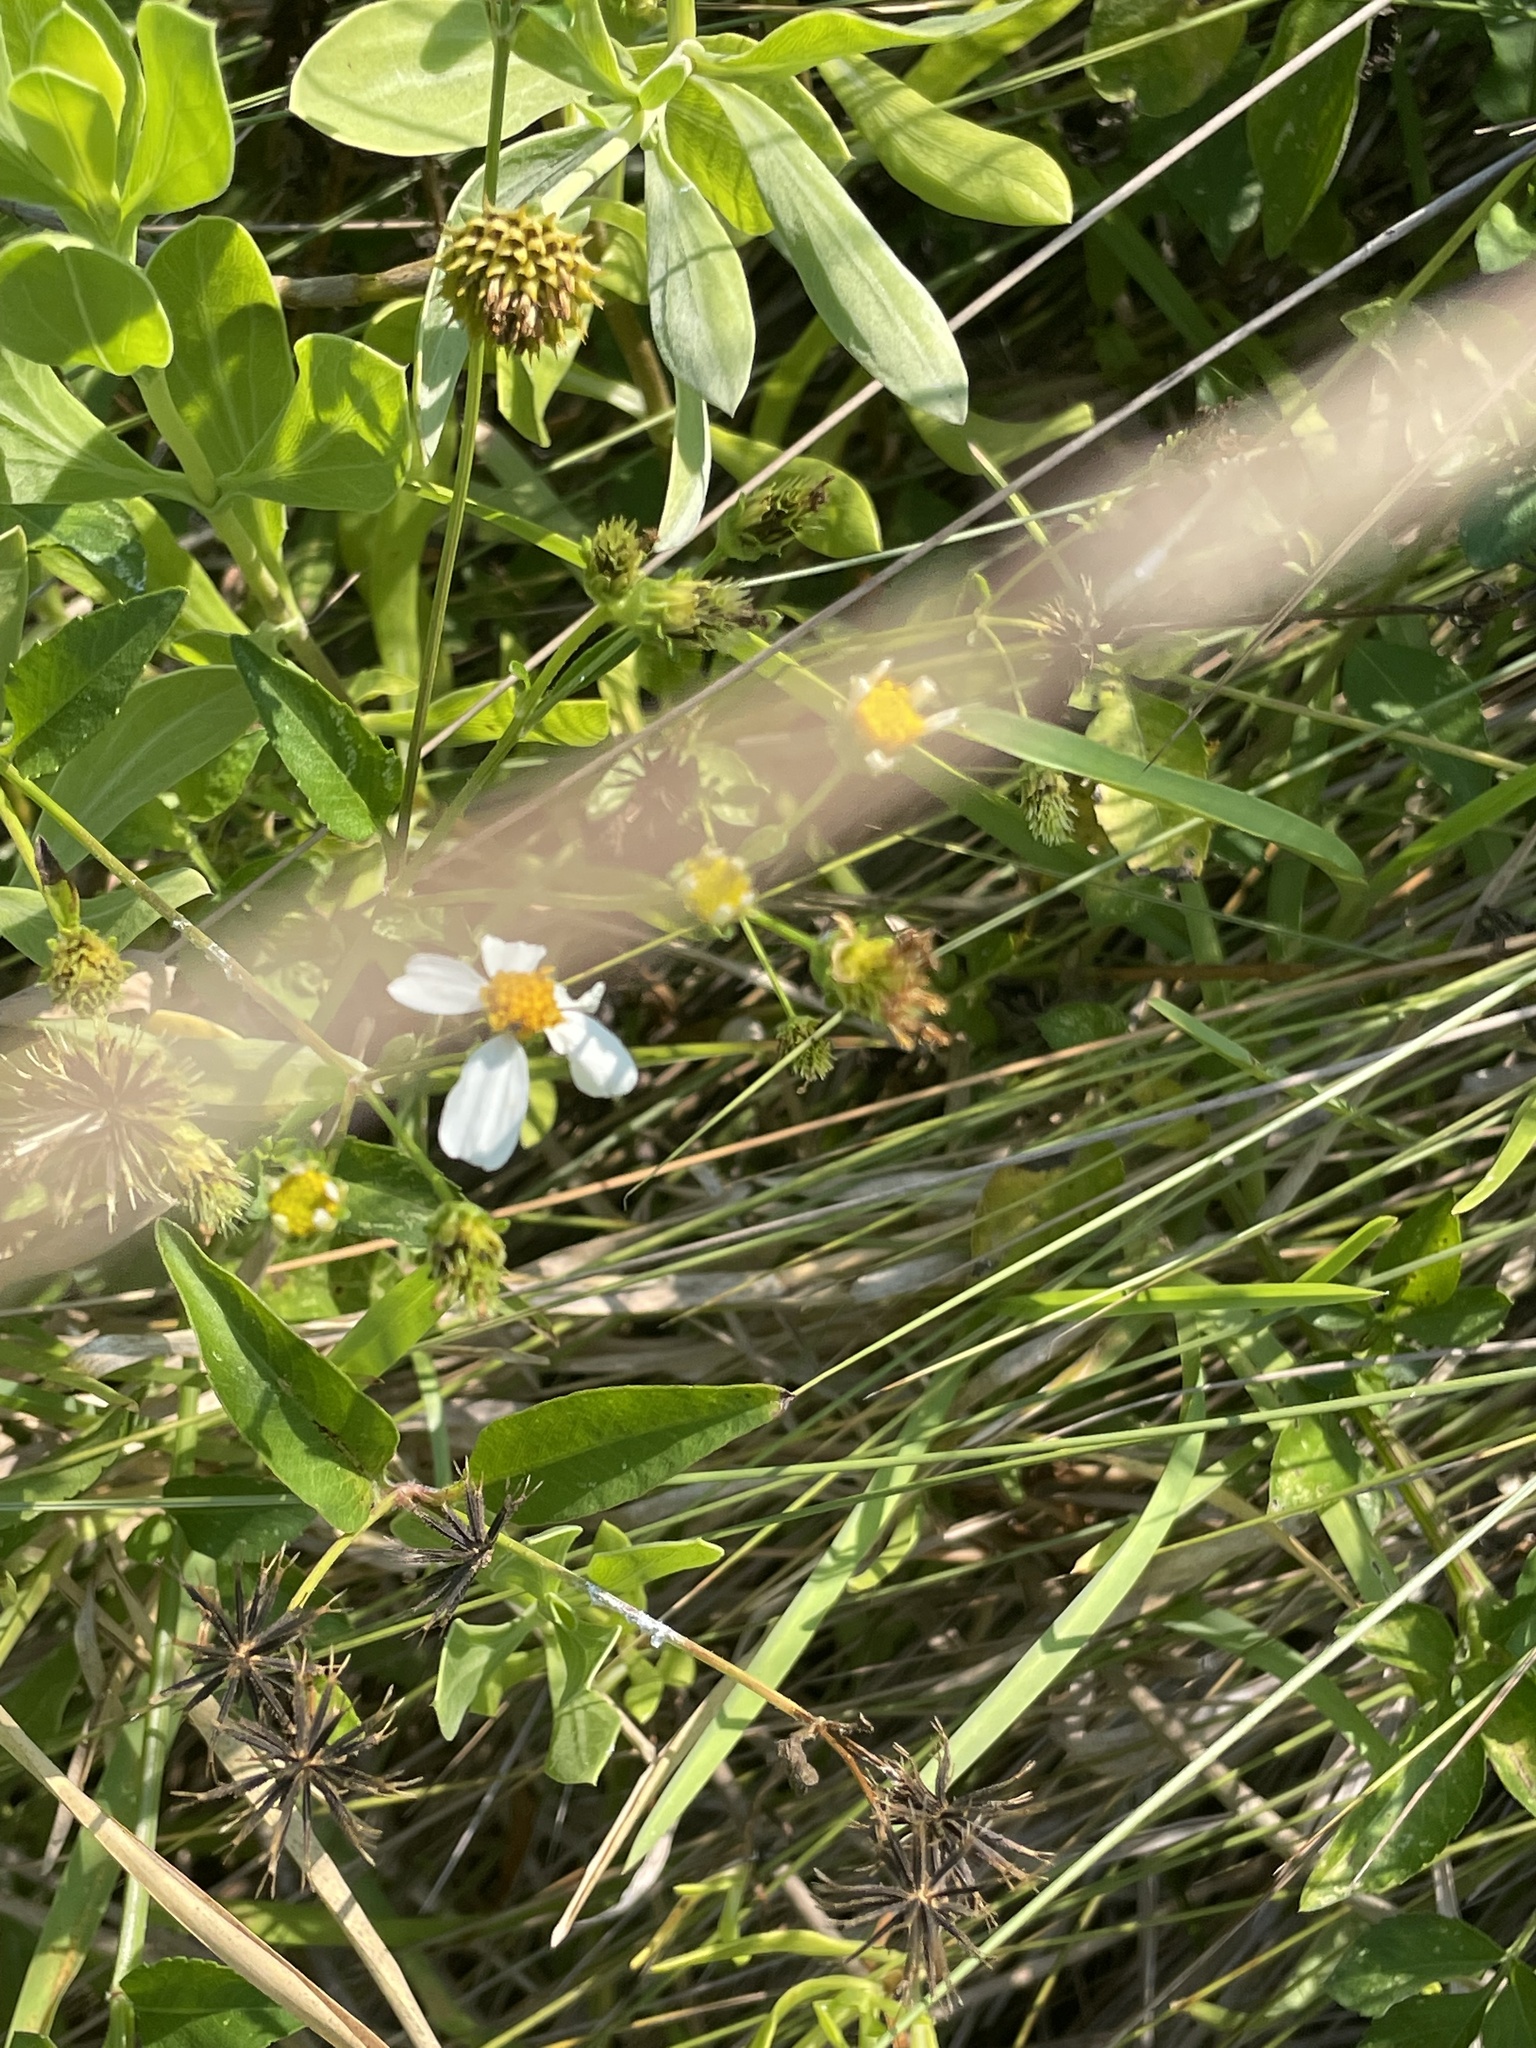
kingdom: Plantae
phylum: Tracheophyta
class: Magnoliopsida
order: Asterales
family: Asteraceae
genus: Bidens
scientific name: Bidens alba
